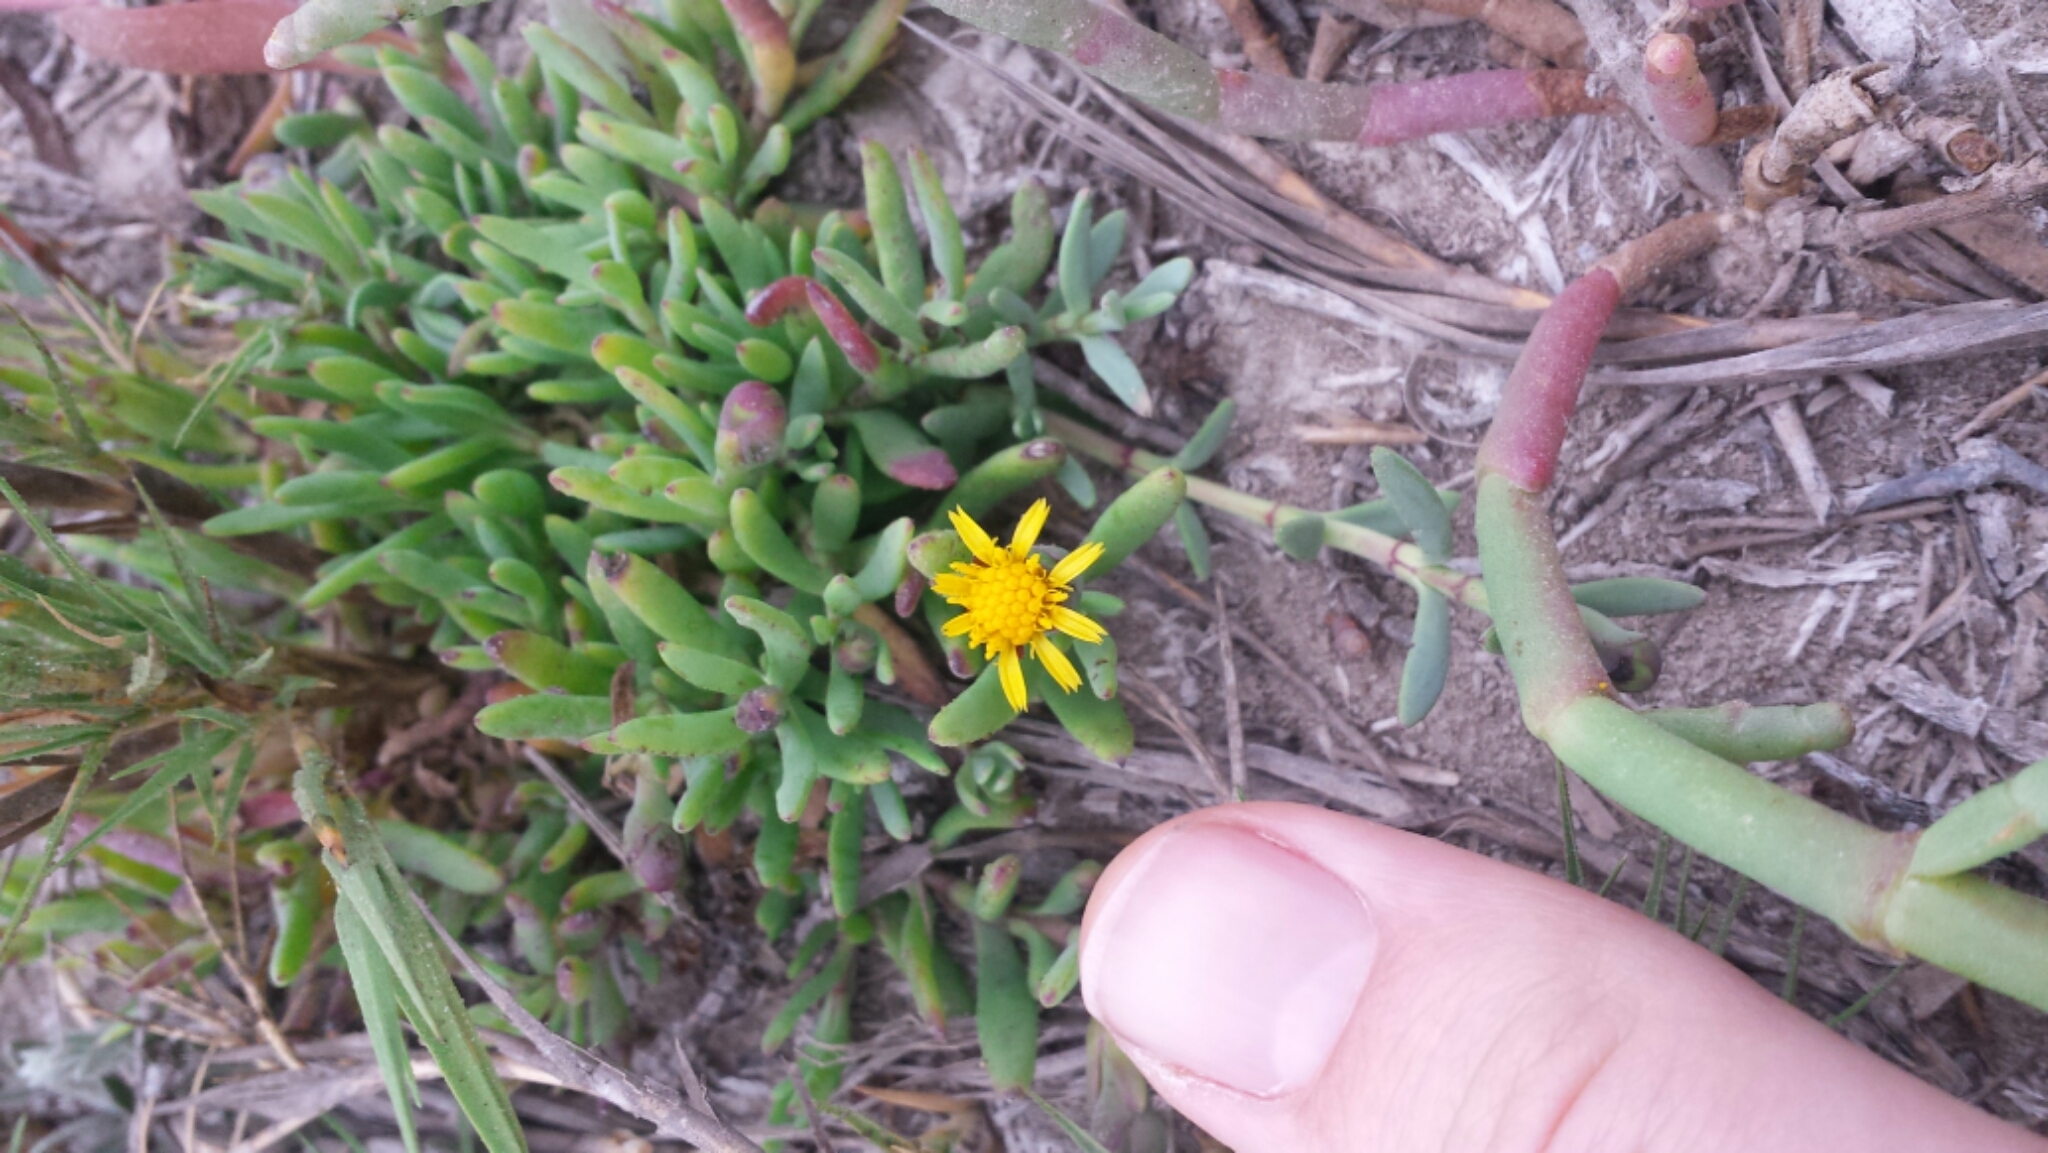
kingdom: Plantae
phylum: Tracheophyta
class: Magnoliopsida
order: Asterales
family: Asteraceae
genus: Jaumea
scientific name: Jaumea carnosa
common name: Fleshy jaumea
